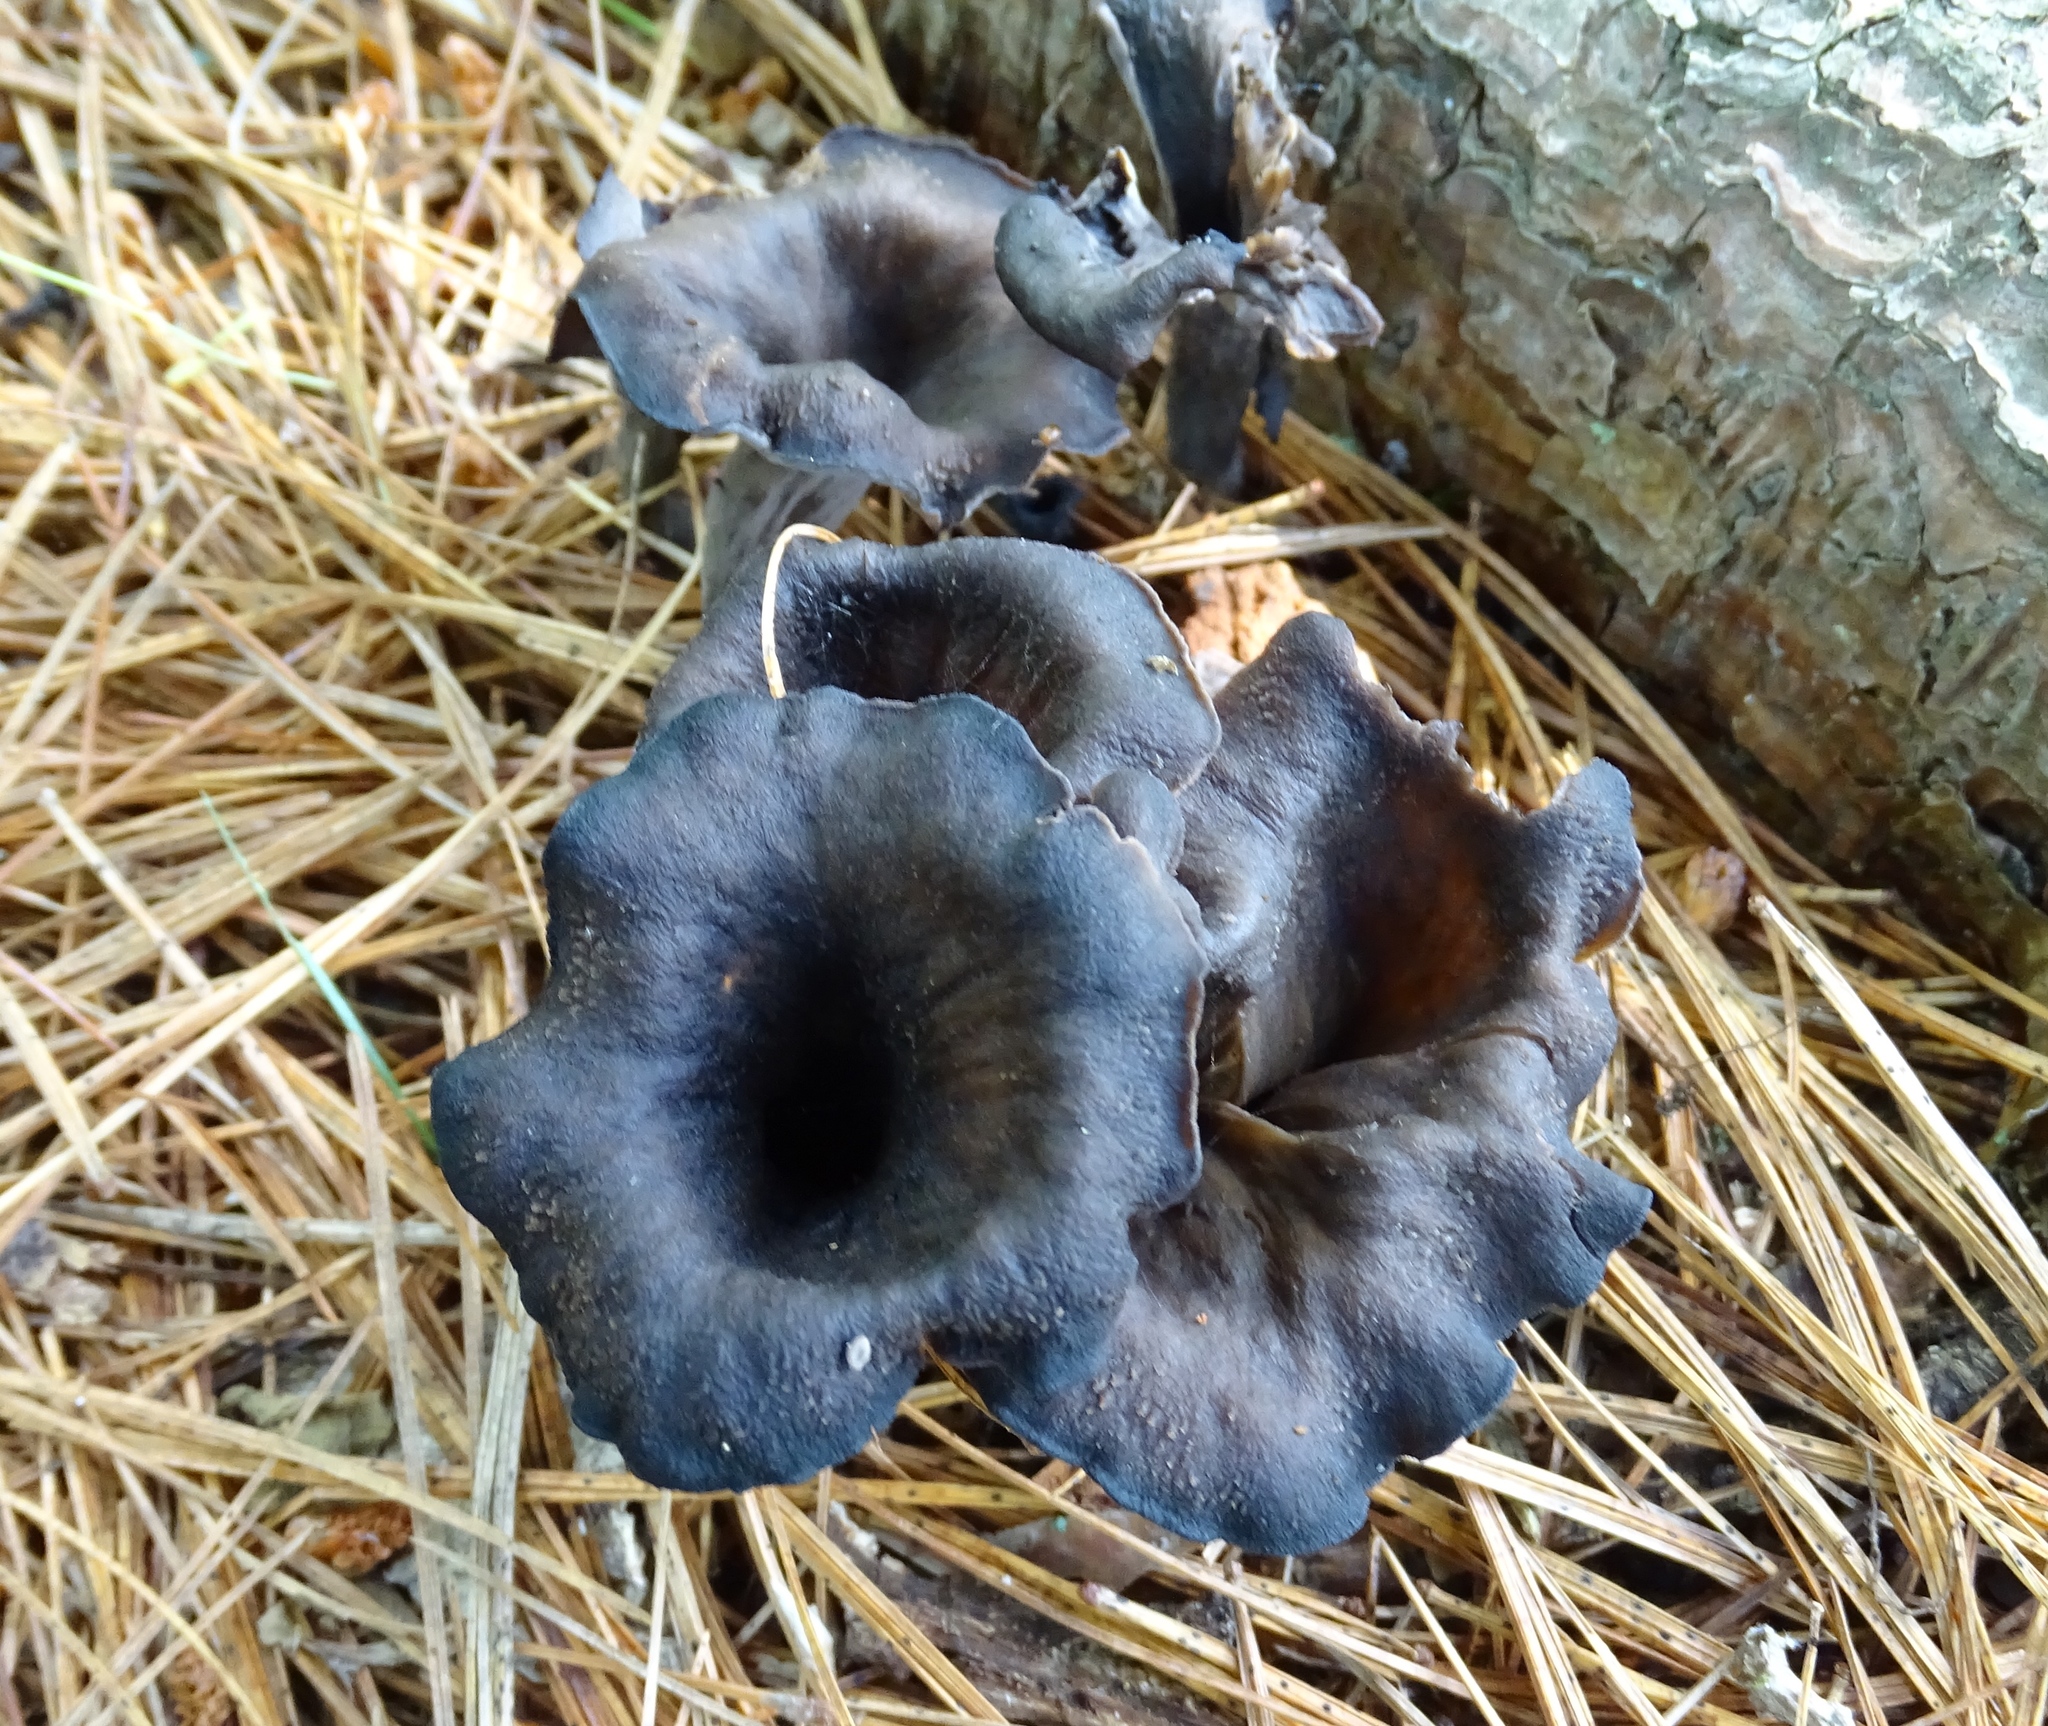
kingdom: Fungi
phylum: Basidiomycota
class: Agaricomycetes
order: Cantharellales
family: Hydnaceae
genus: Craterellus
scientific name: Craterellus cornucopioides
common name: Horn of plenty
